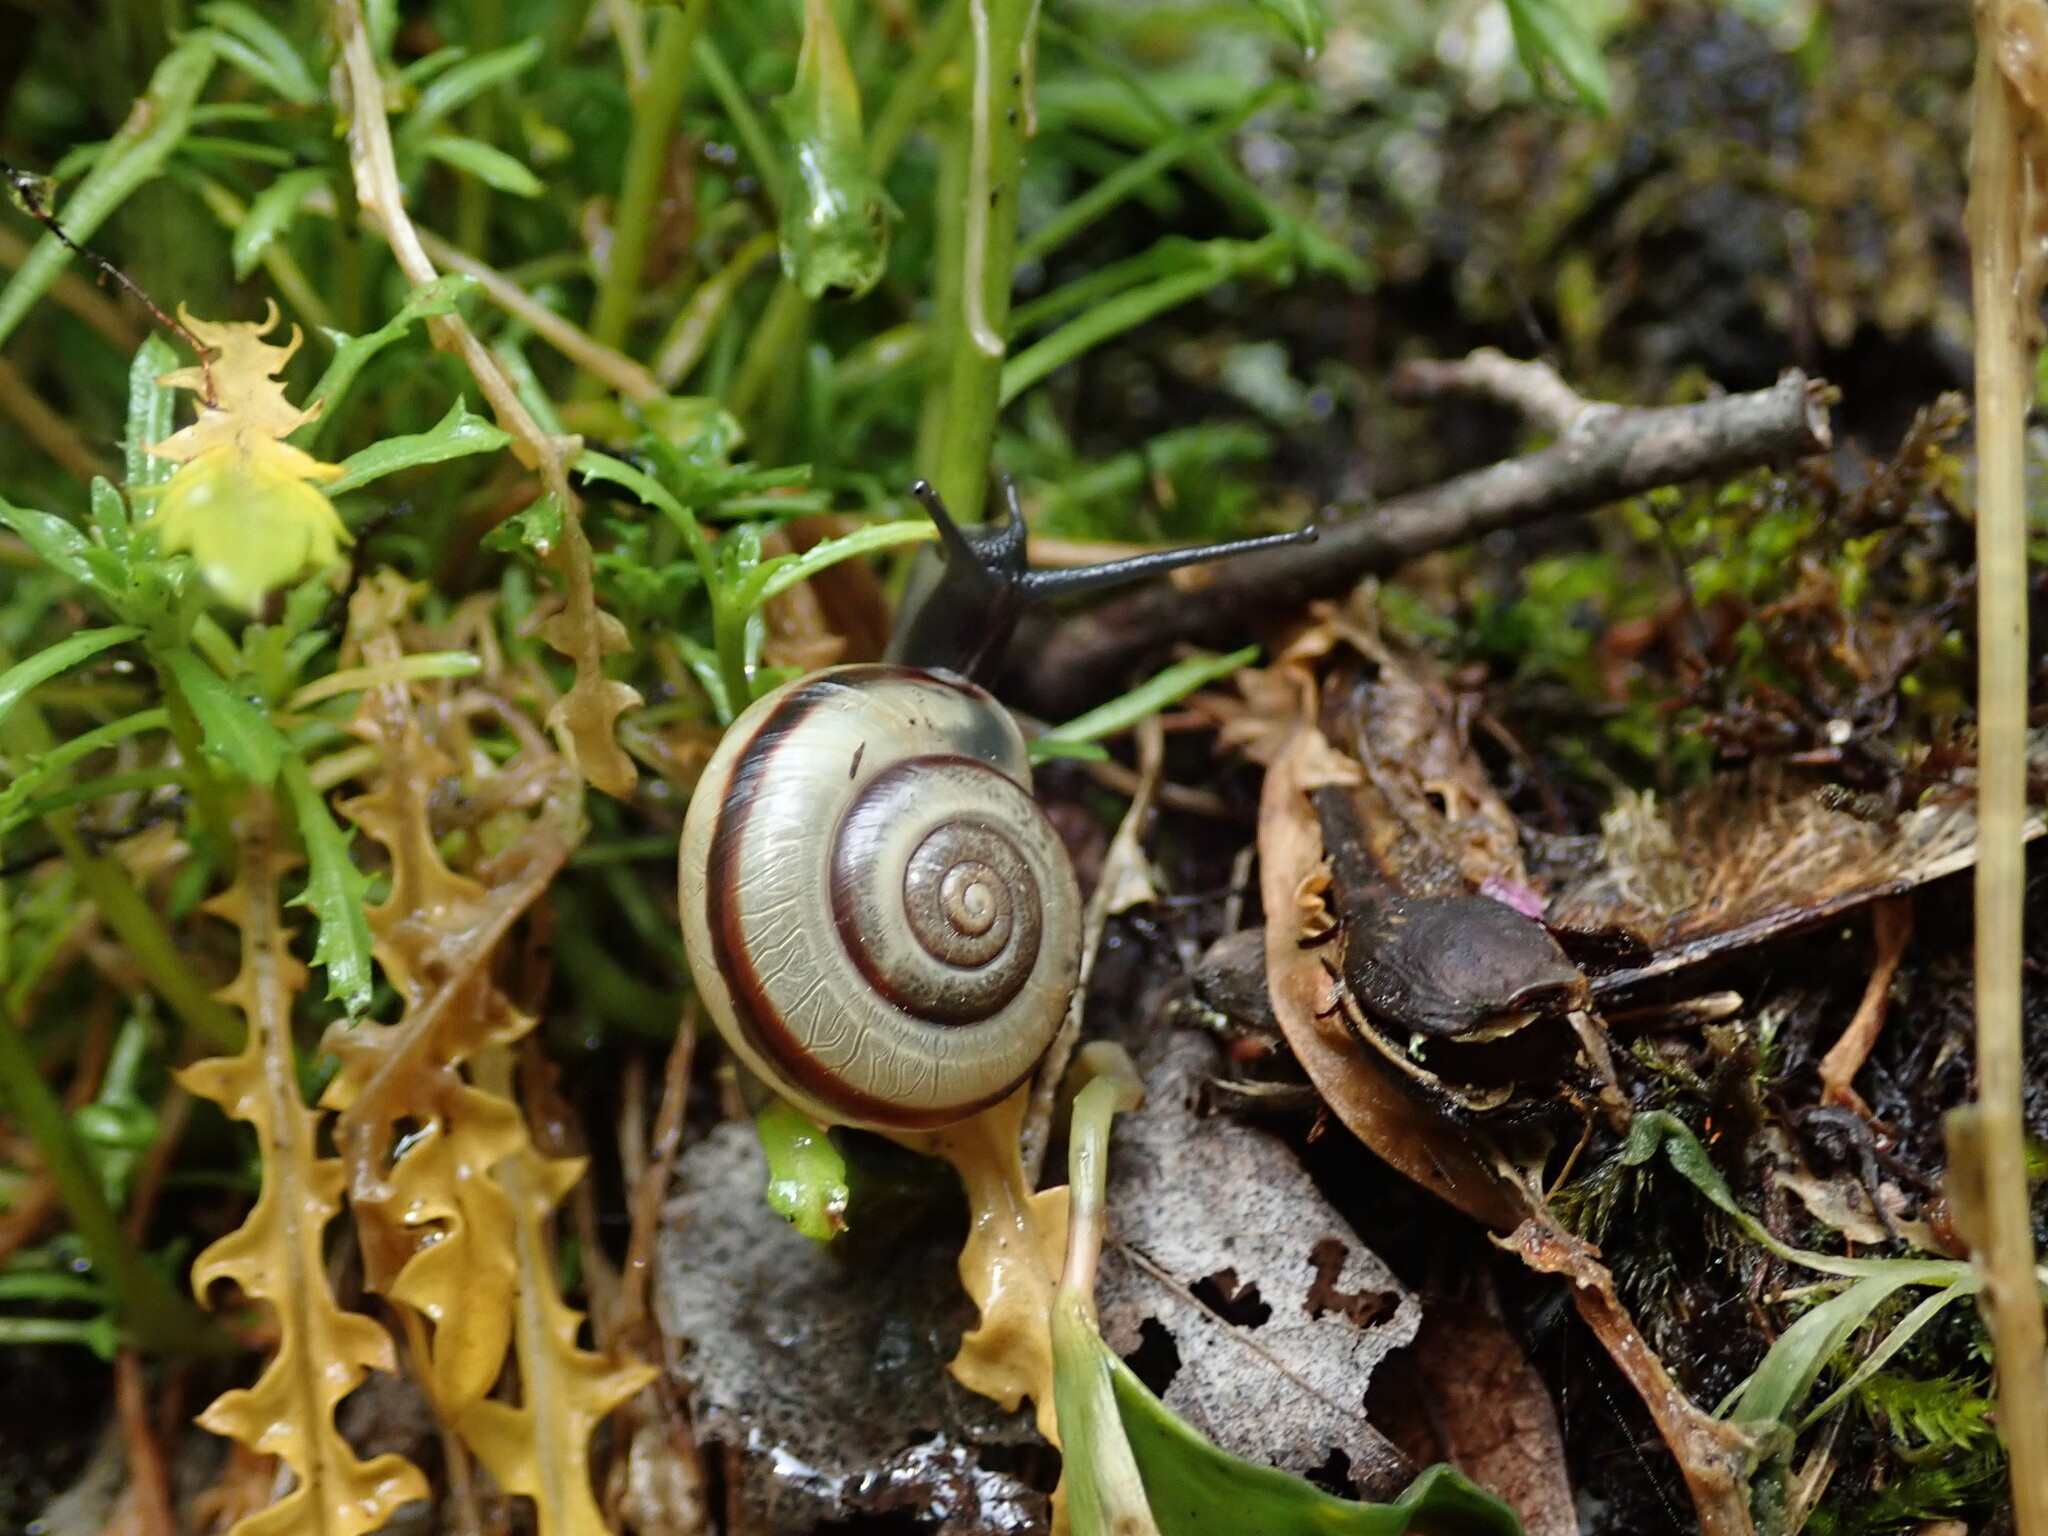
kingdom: Animalia
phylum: Mollusca
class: Gastropoda
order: Stylommatophora
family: Helicidae
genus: Faustina
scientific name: Faustina faustina
